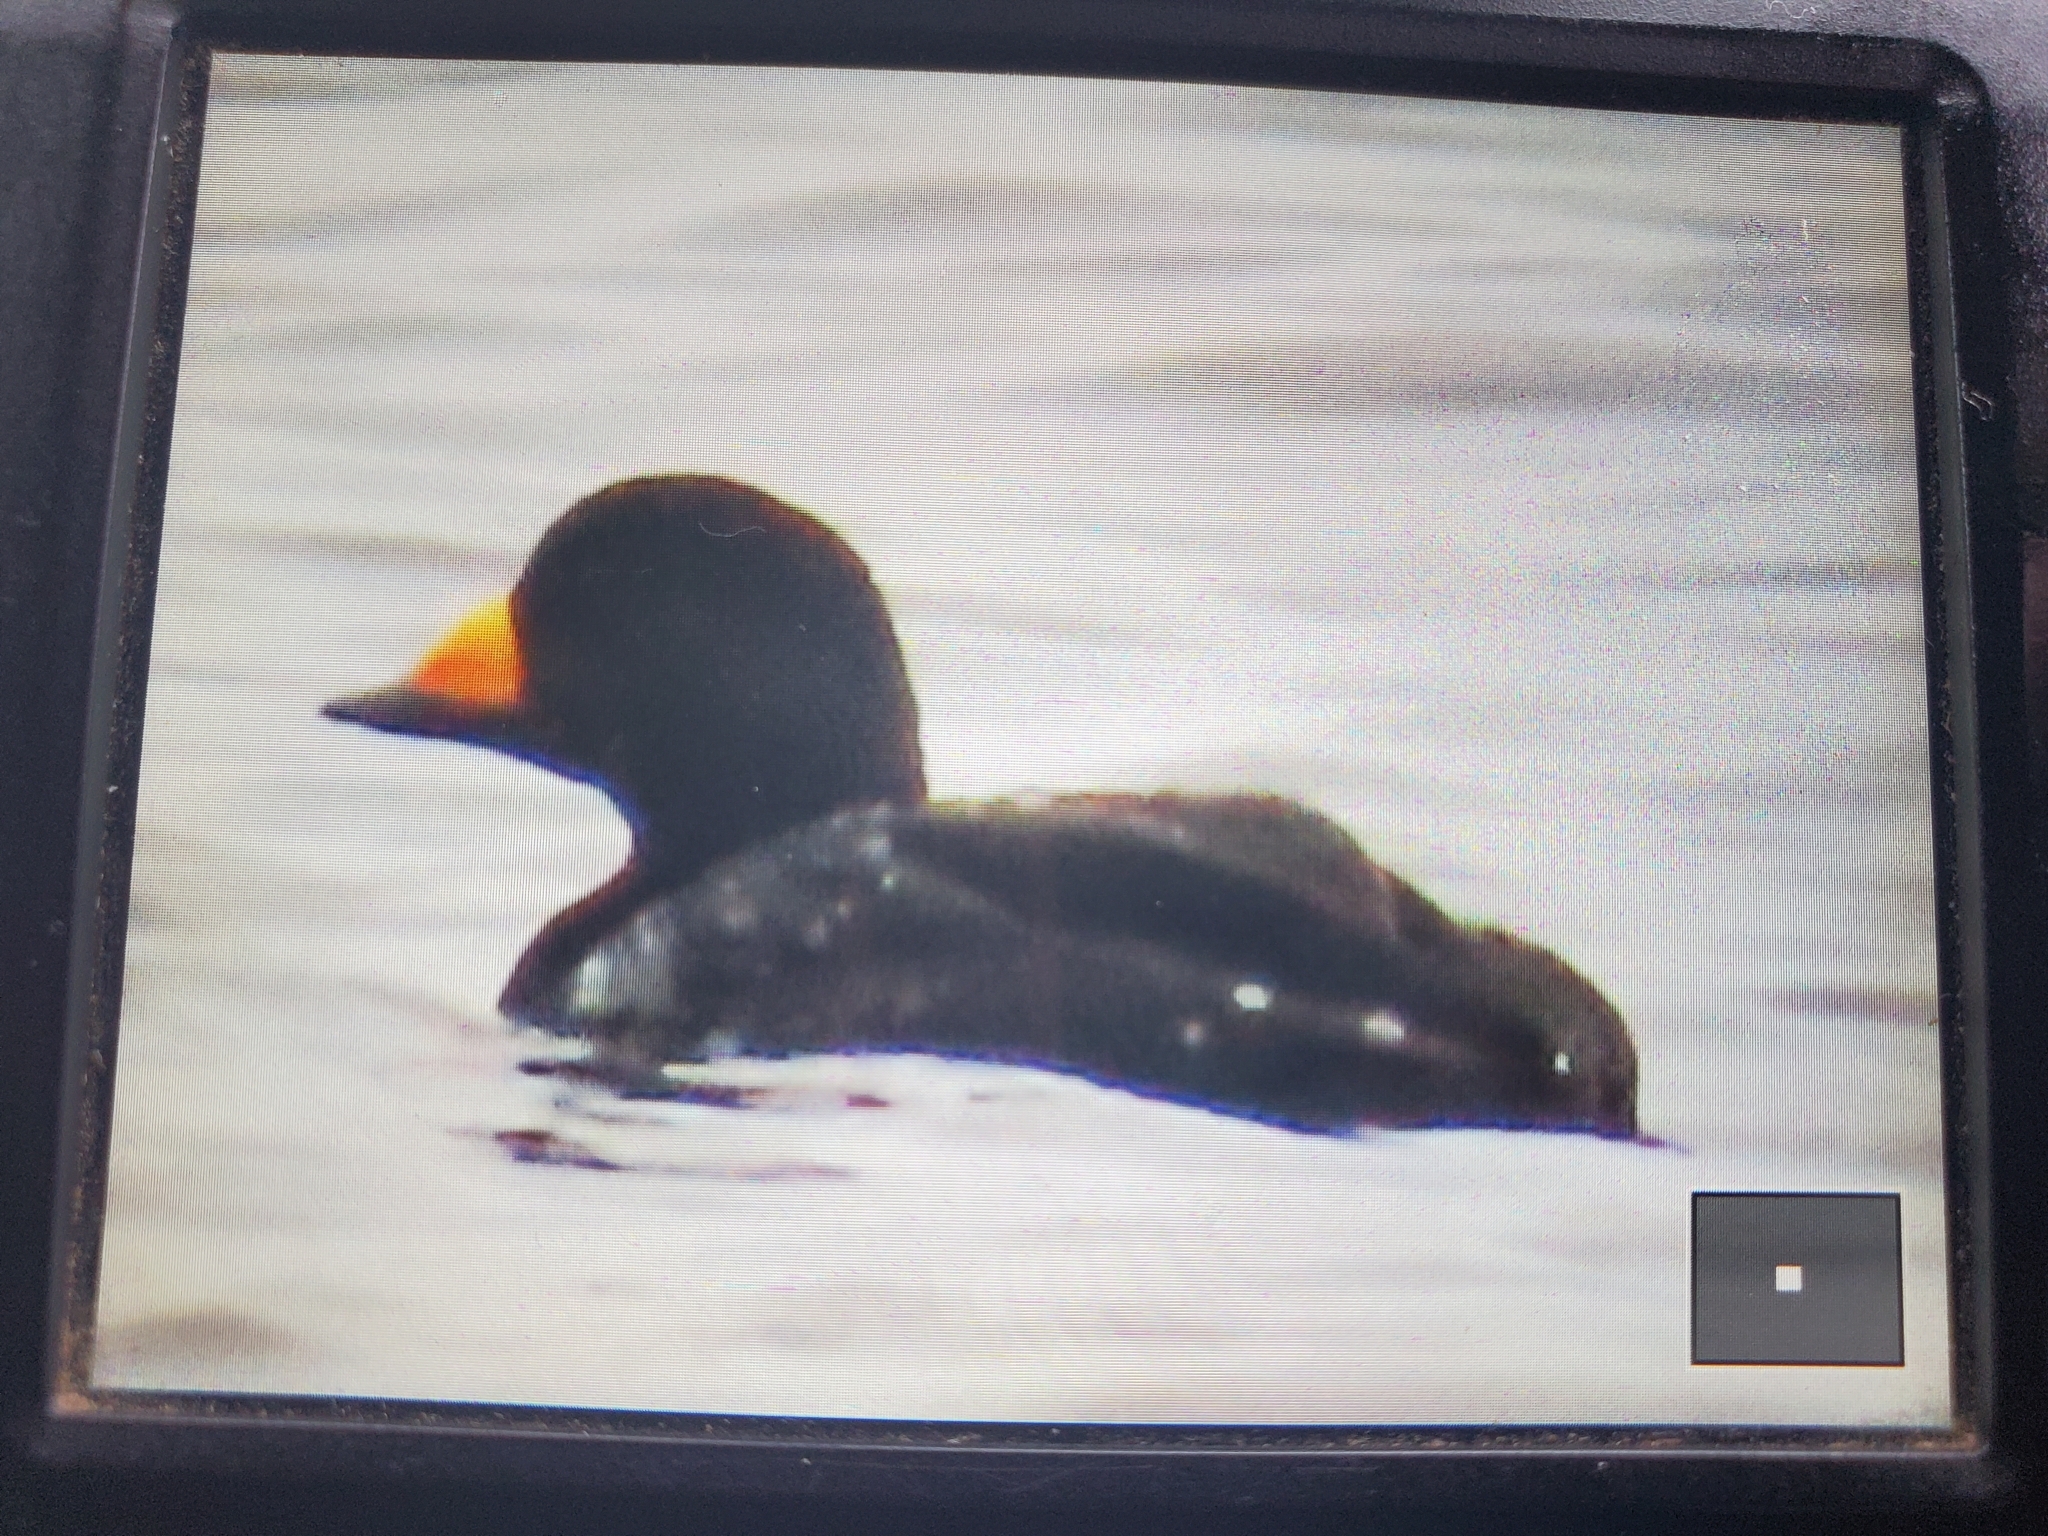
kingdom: Animalia
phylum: Chordata
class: Aves
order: Anseriformes
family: Anatidae
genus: Melanitta
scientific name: Melanitta americana
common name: Black scoter
